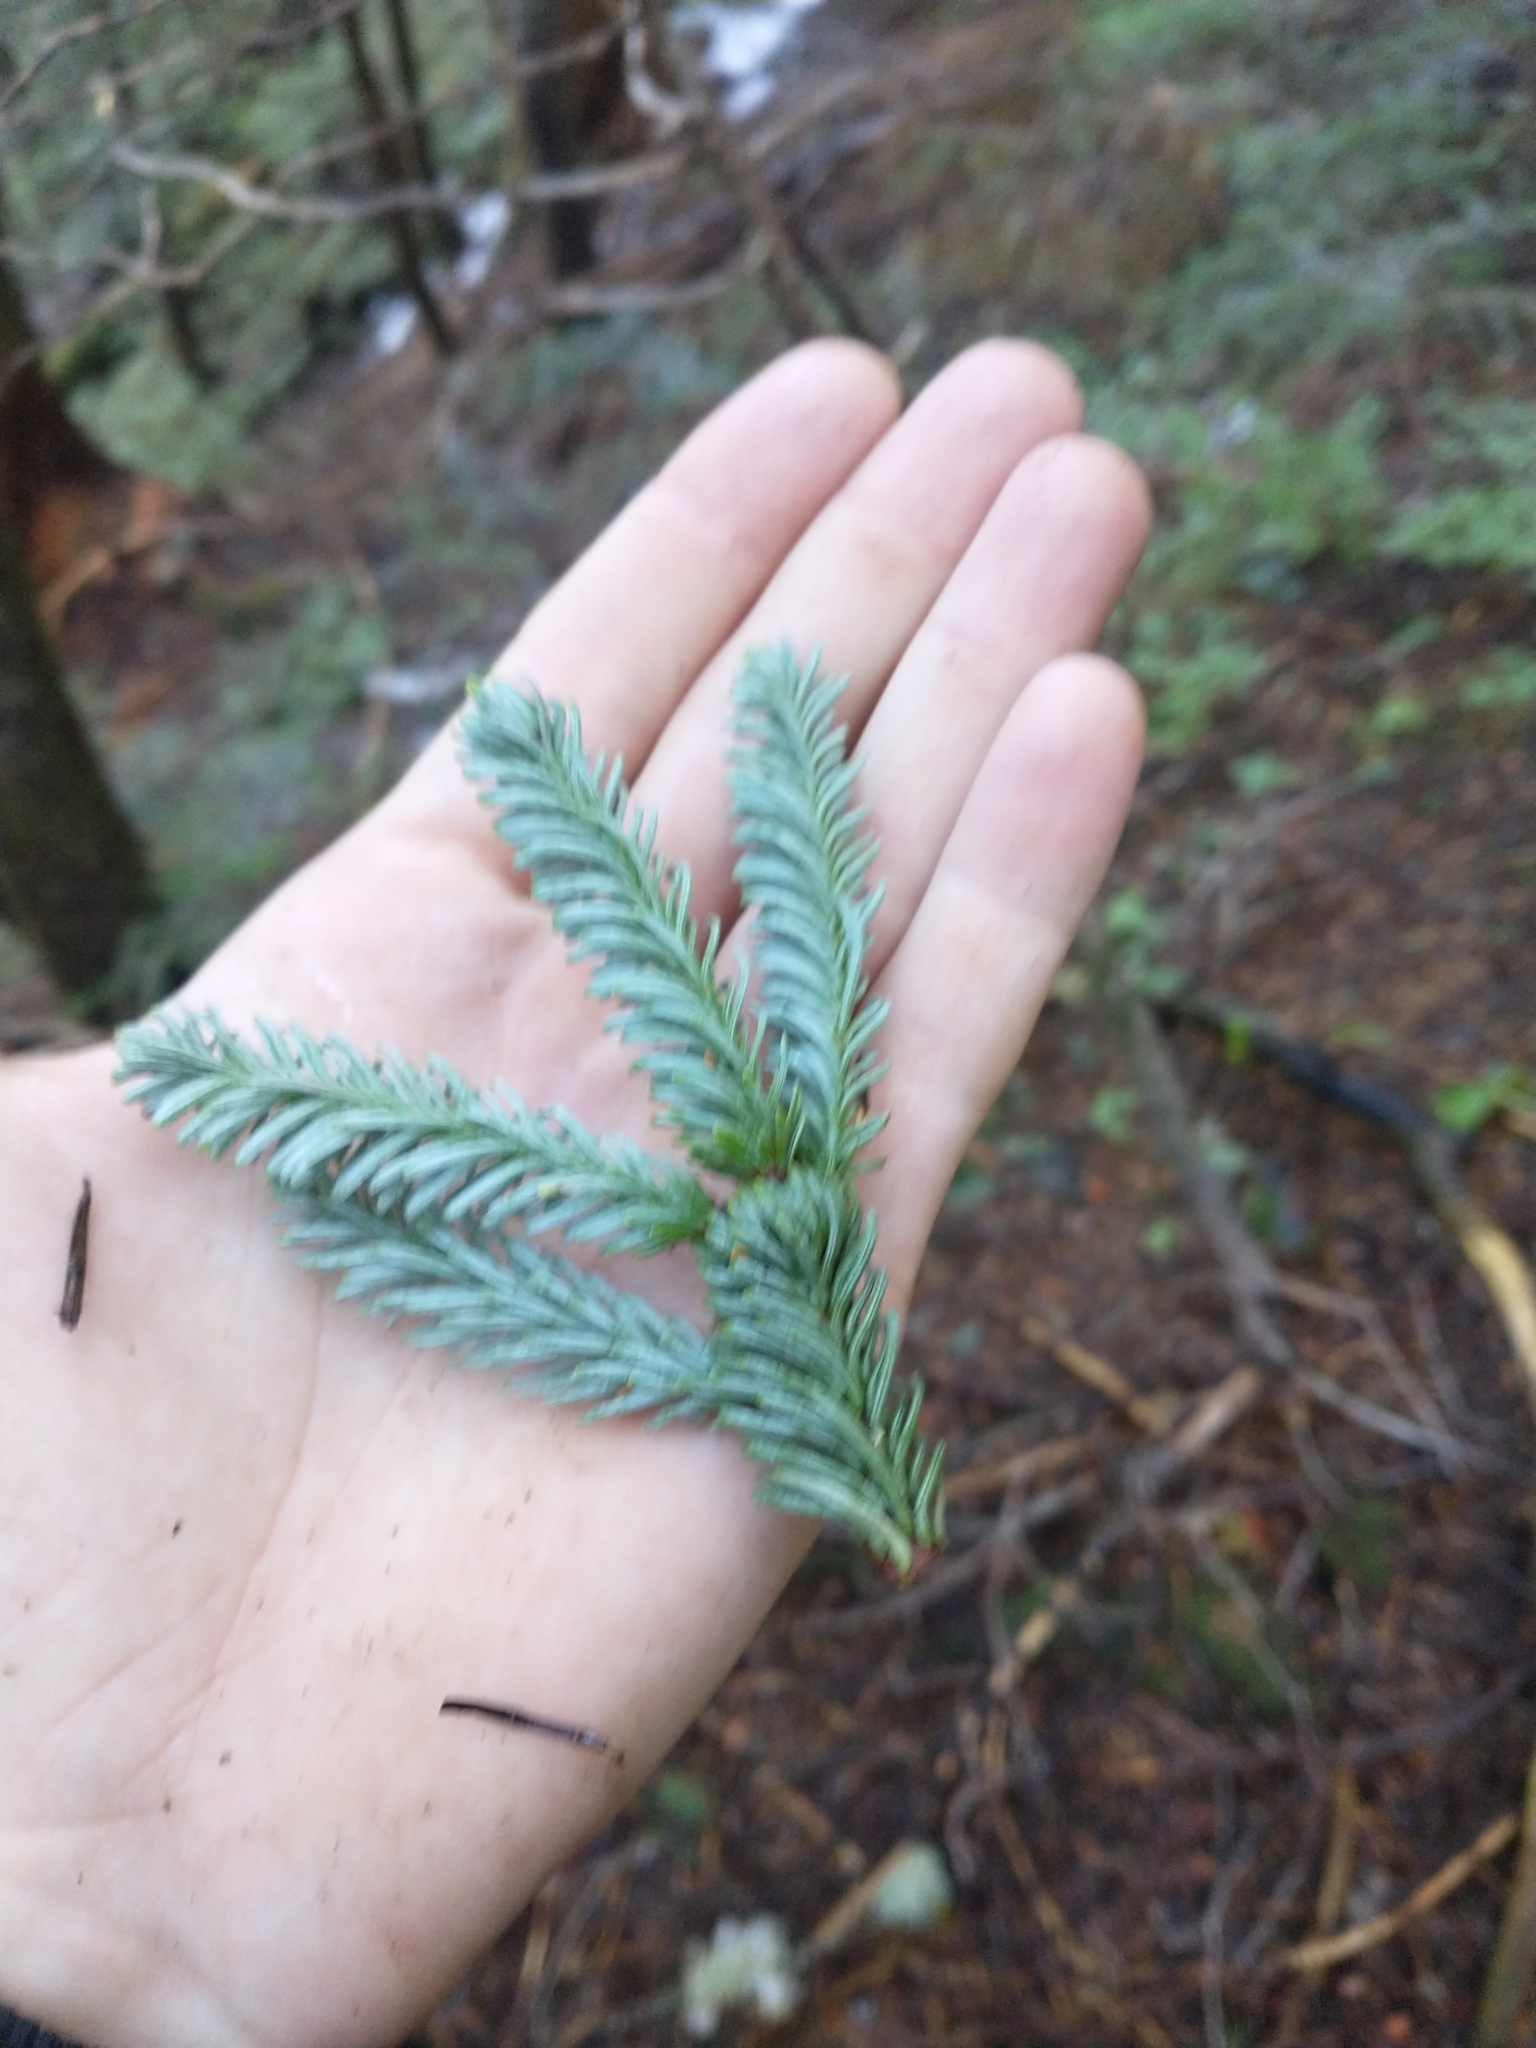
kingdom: Plantae
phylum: Tracheophyta
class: Pinopsida
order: Pinales
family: Pinaceae
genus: Abies
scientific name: Abies procera
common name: Noble fir
